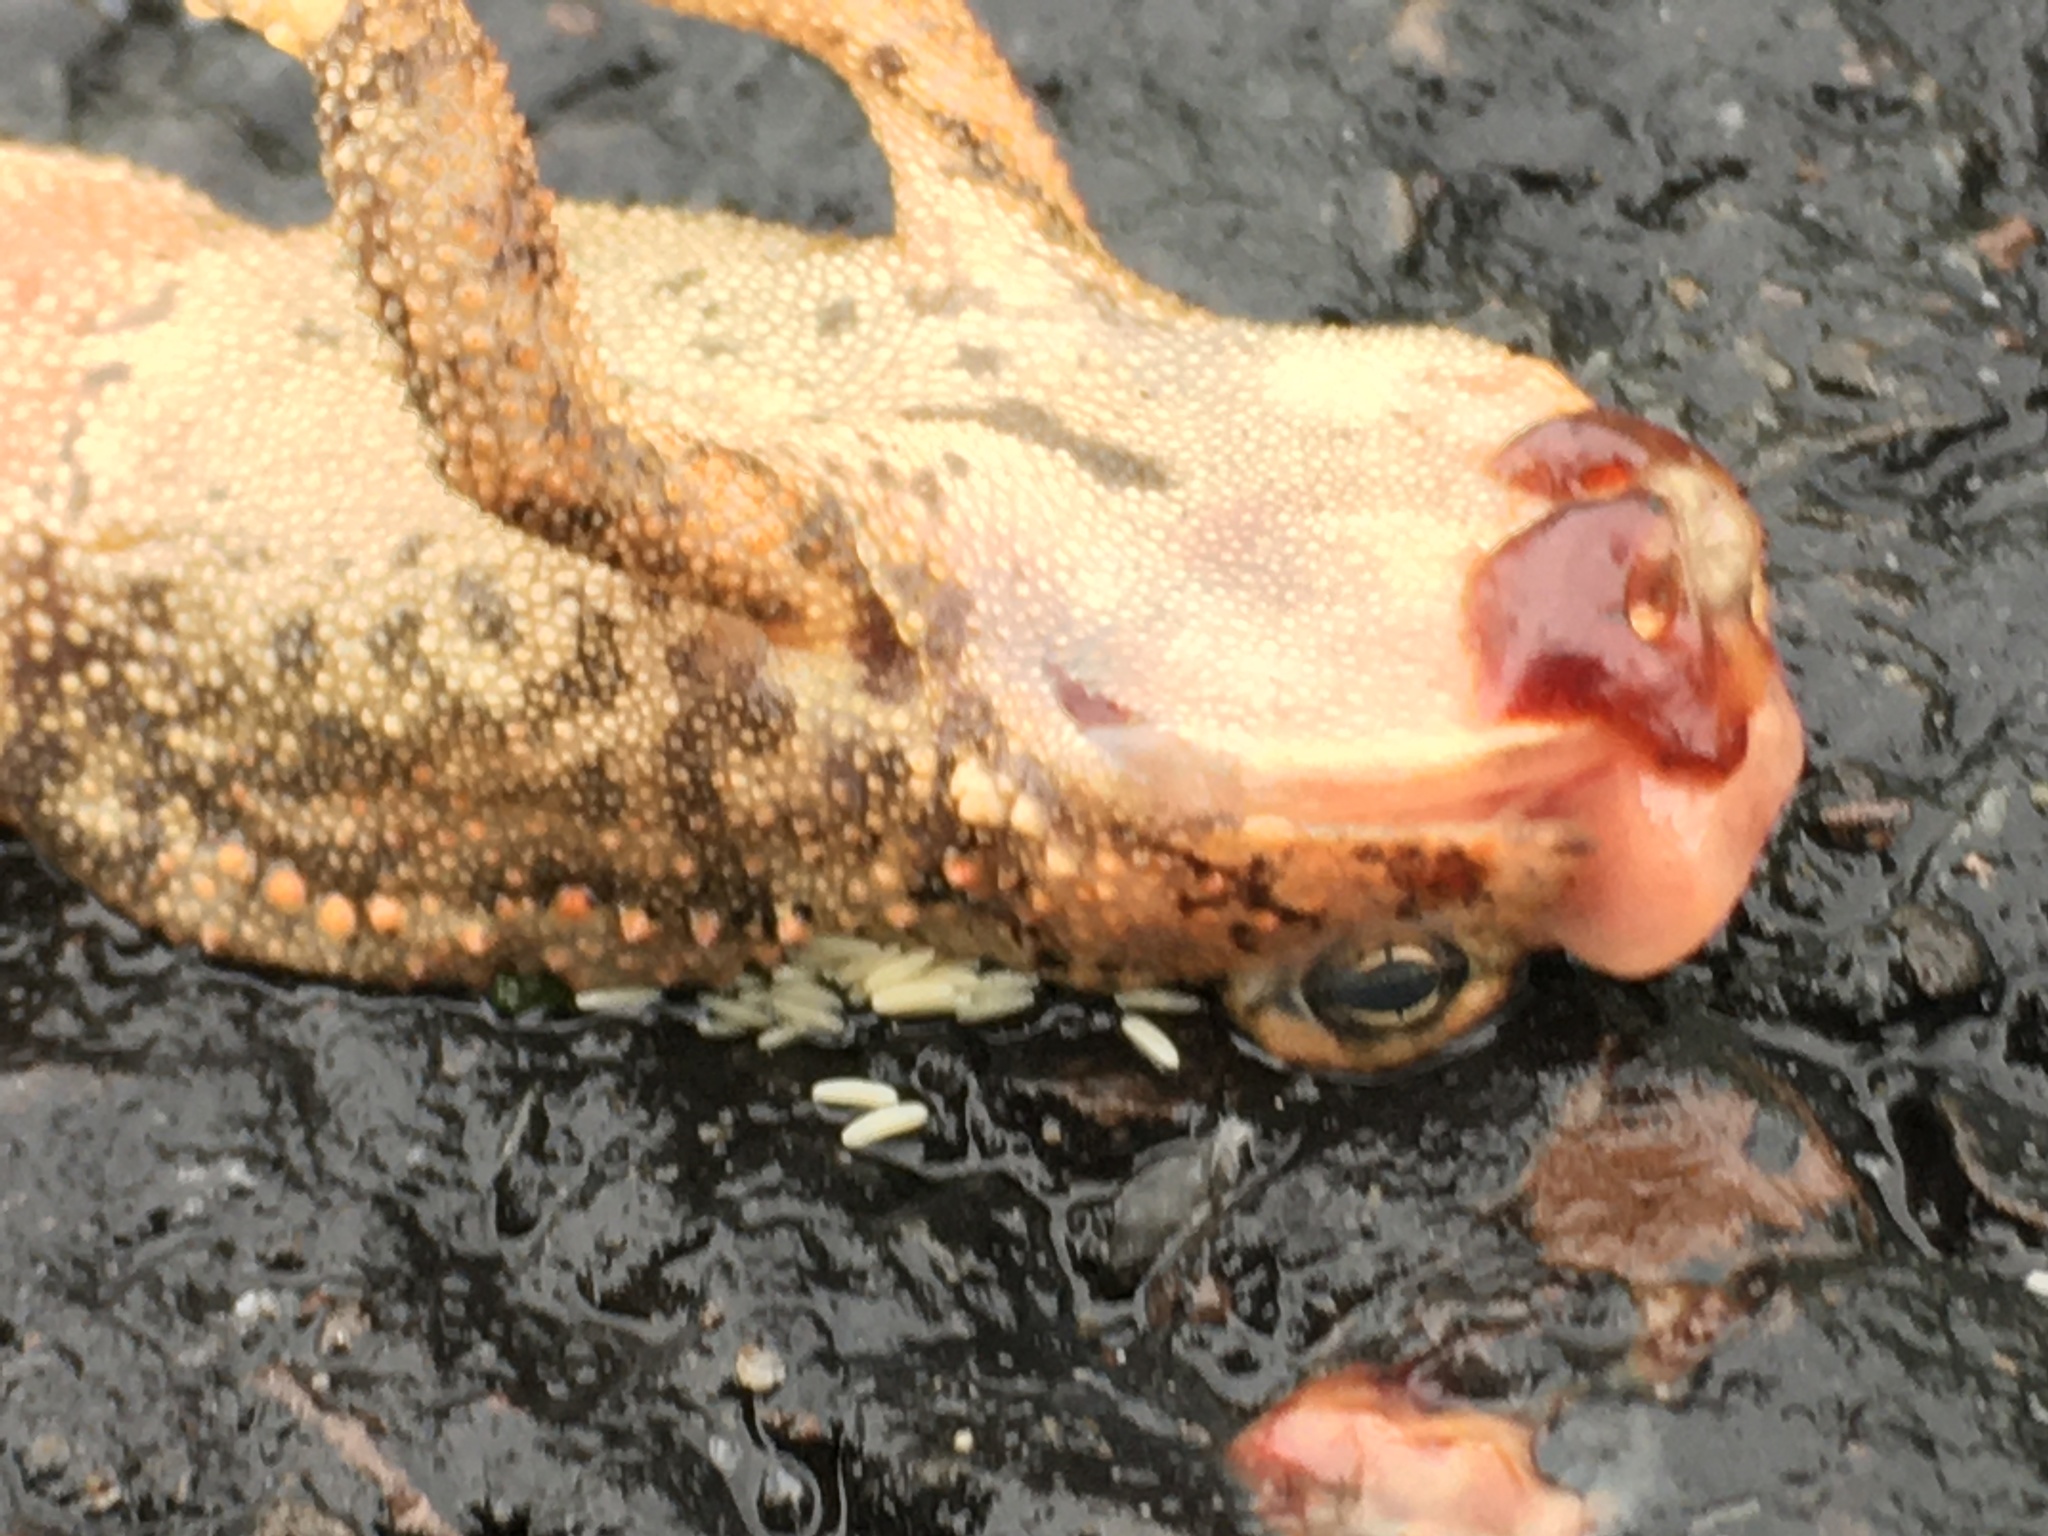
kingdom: Animalia
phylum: Chordata
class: Amphibia
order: Anura
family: Bufonidae
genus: Anaxyrus
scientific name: Anaxyrus americanus
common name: American toad
